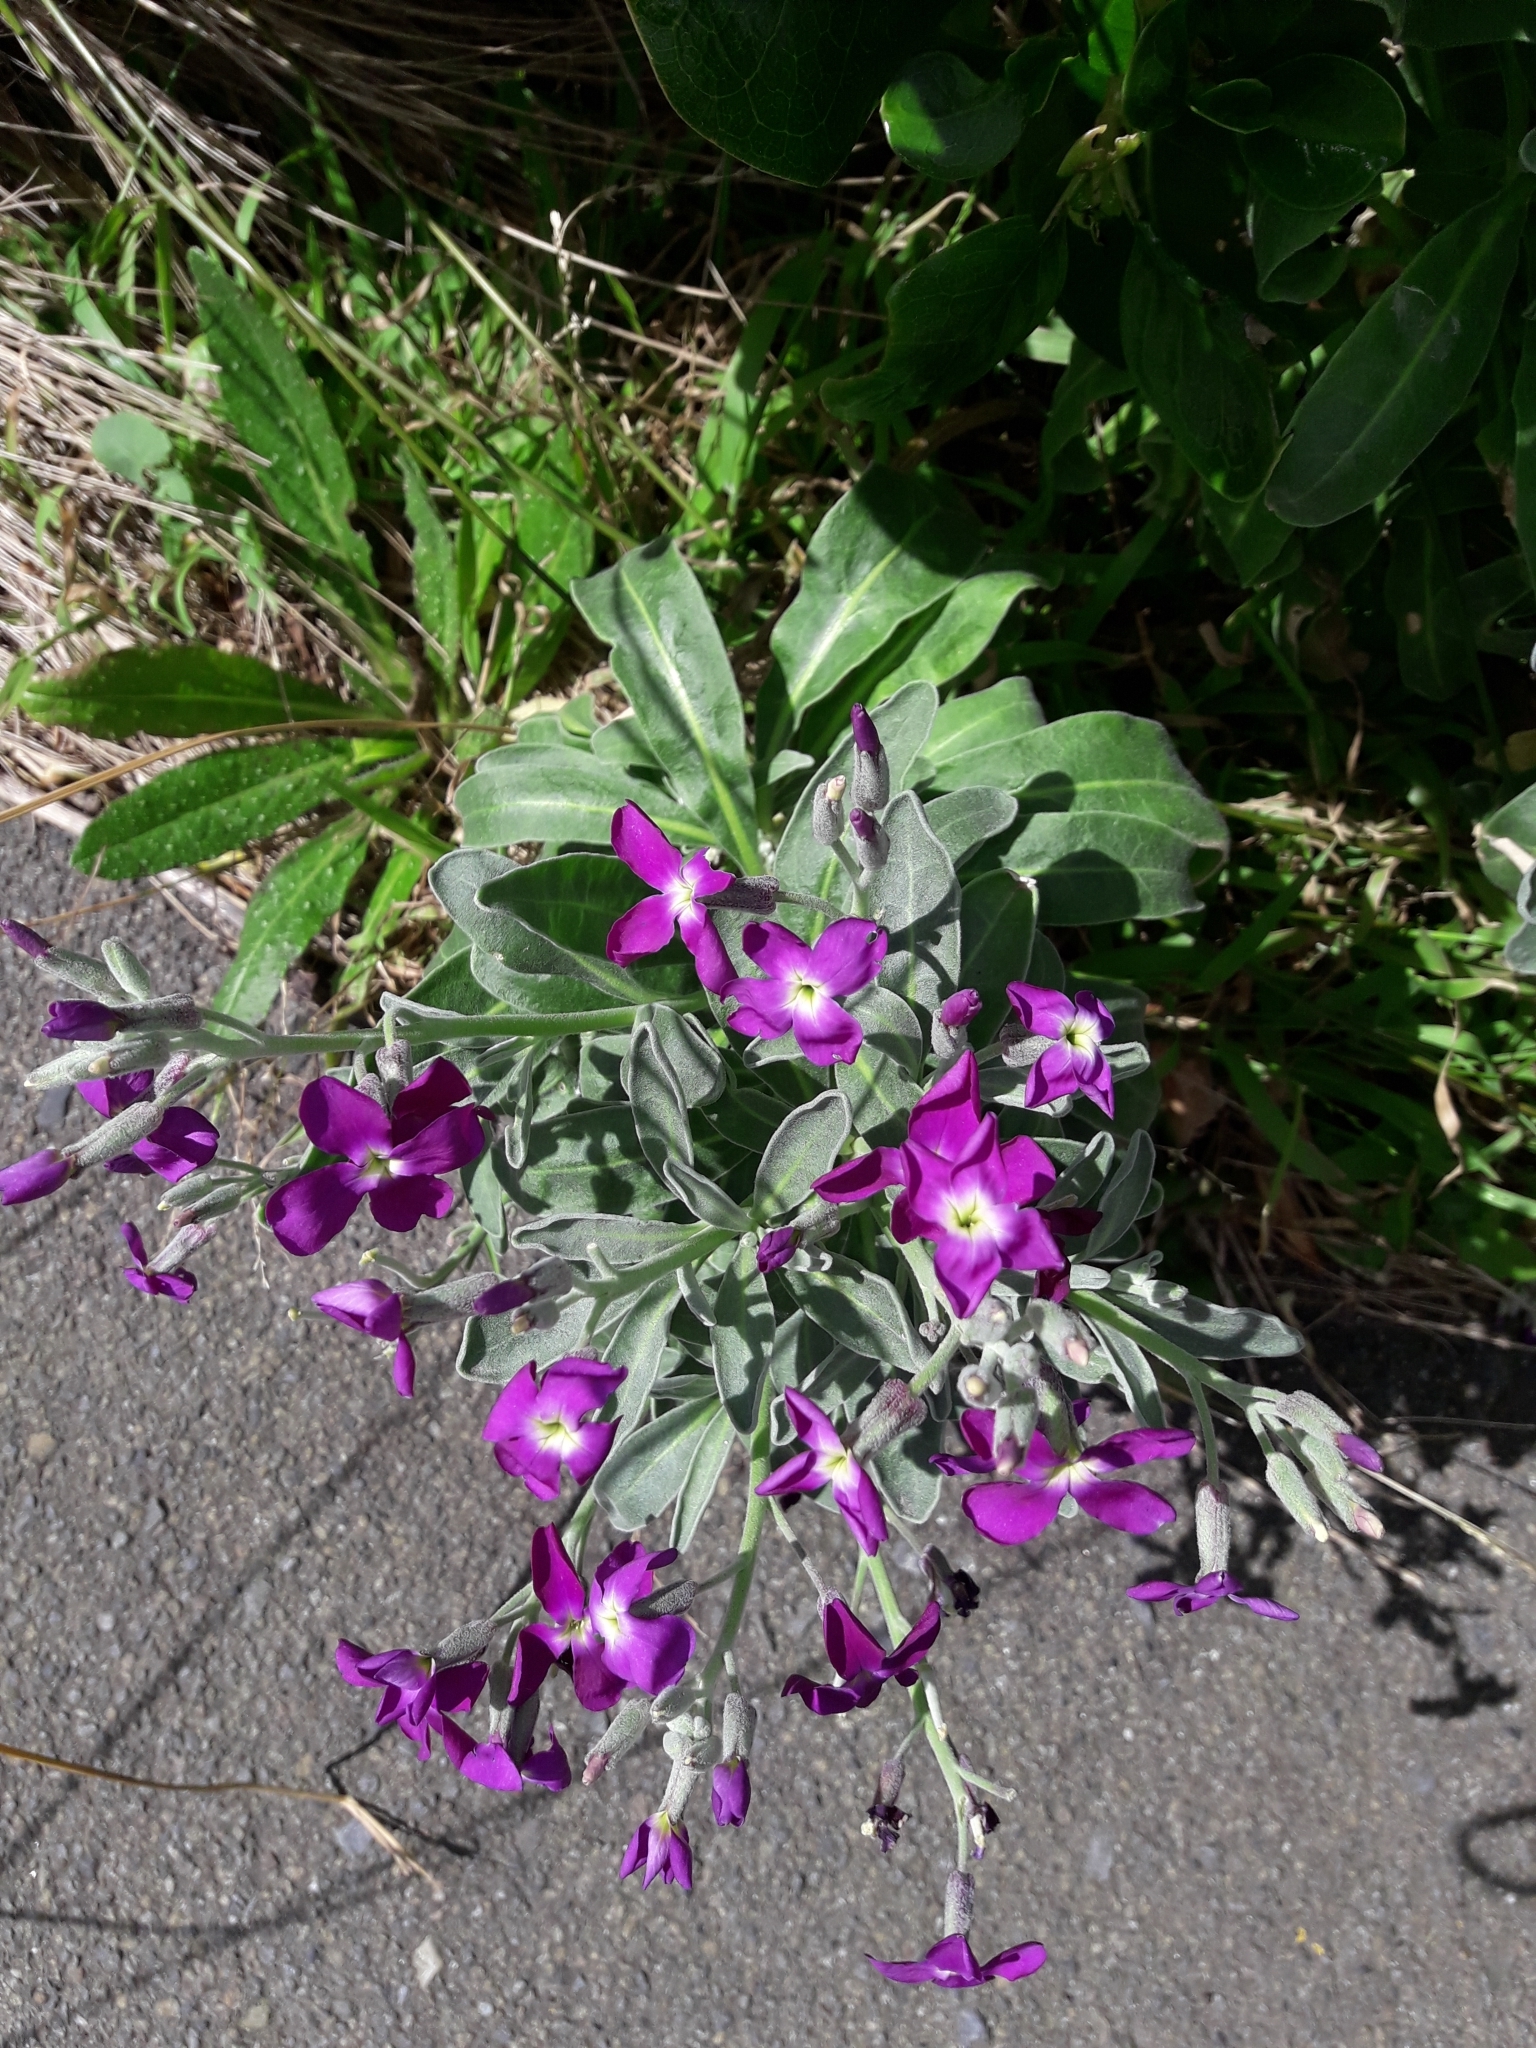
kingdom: Plantae
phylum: Tracheophyta
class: Magnoliopsida
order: Brassicales
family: Brassicaceae
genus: Matthiola
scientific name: Matthiola incana
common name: Hoary stock
